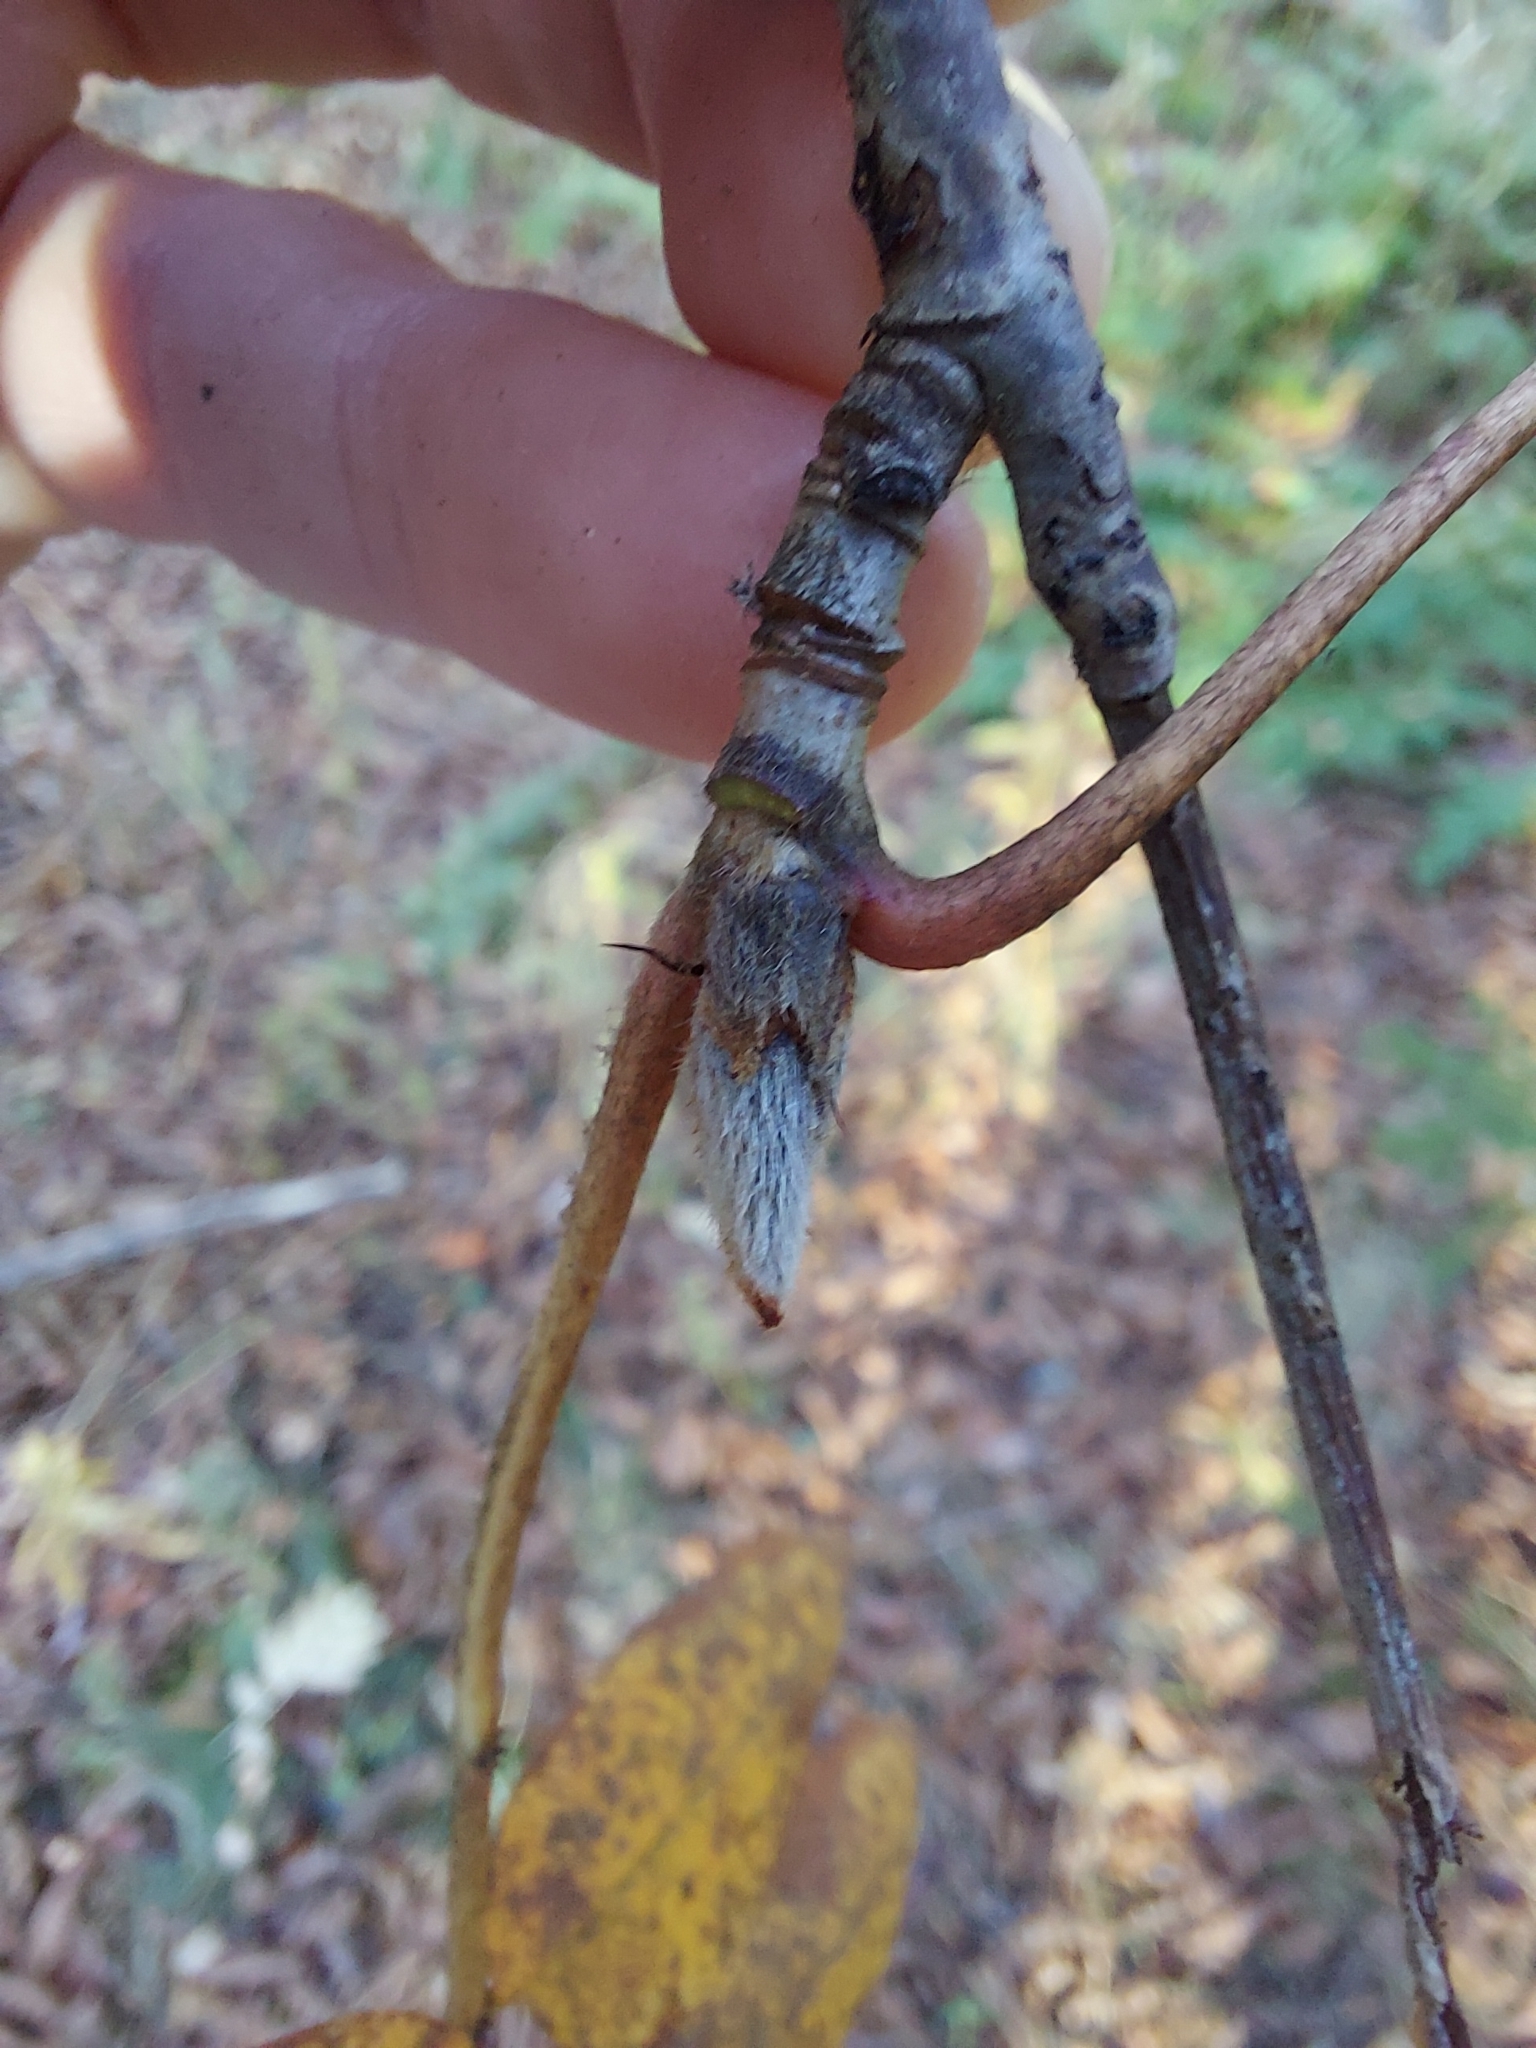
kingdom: Plantae
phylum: Tracheophyta
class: Magnoliopsida
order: Rosales
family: Rosaceae
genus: Sorbus
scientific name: Sorbus aucuparia
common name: Rowan
